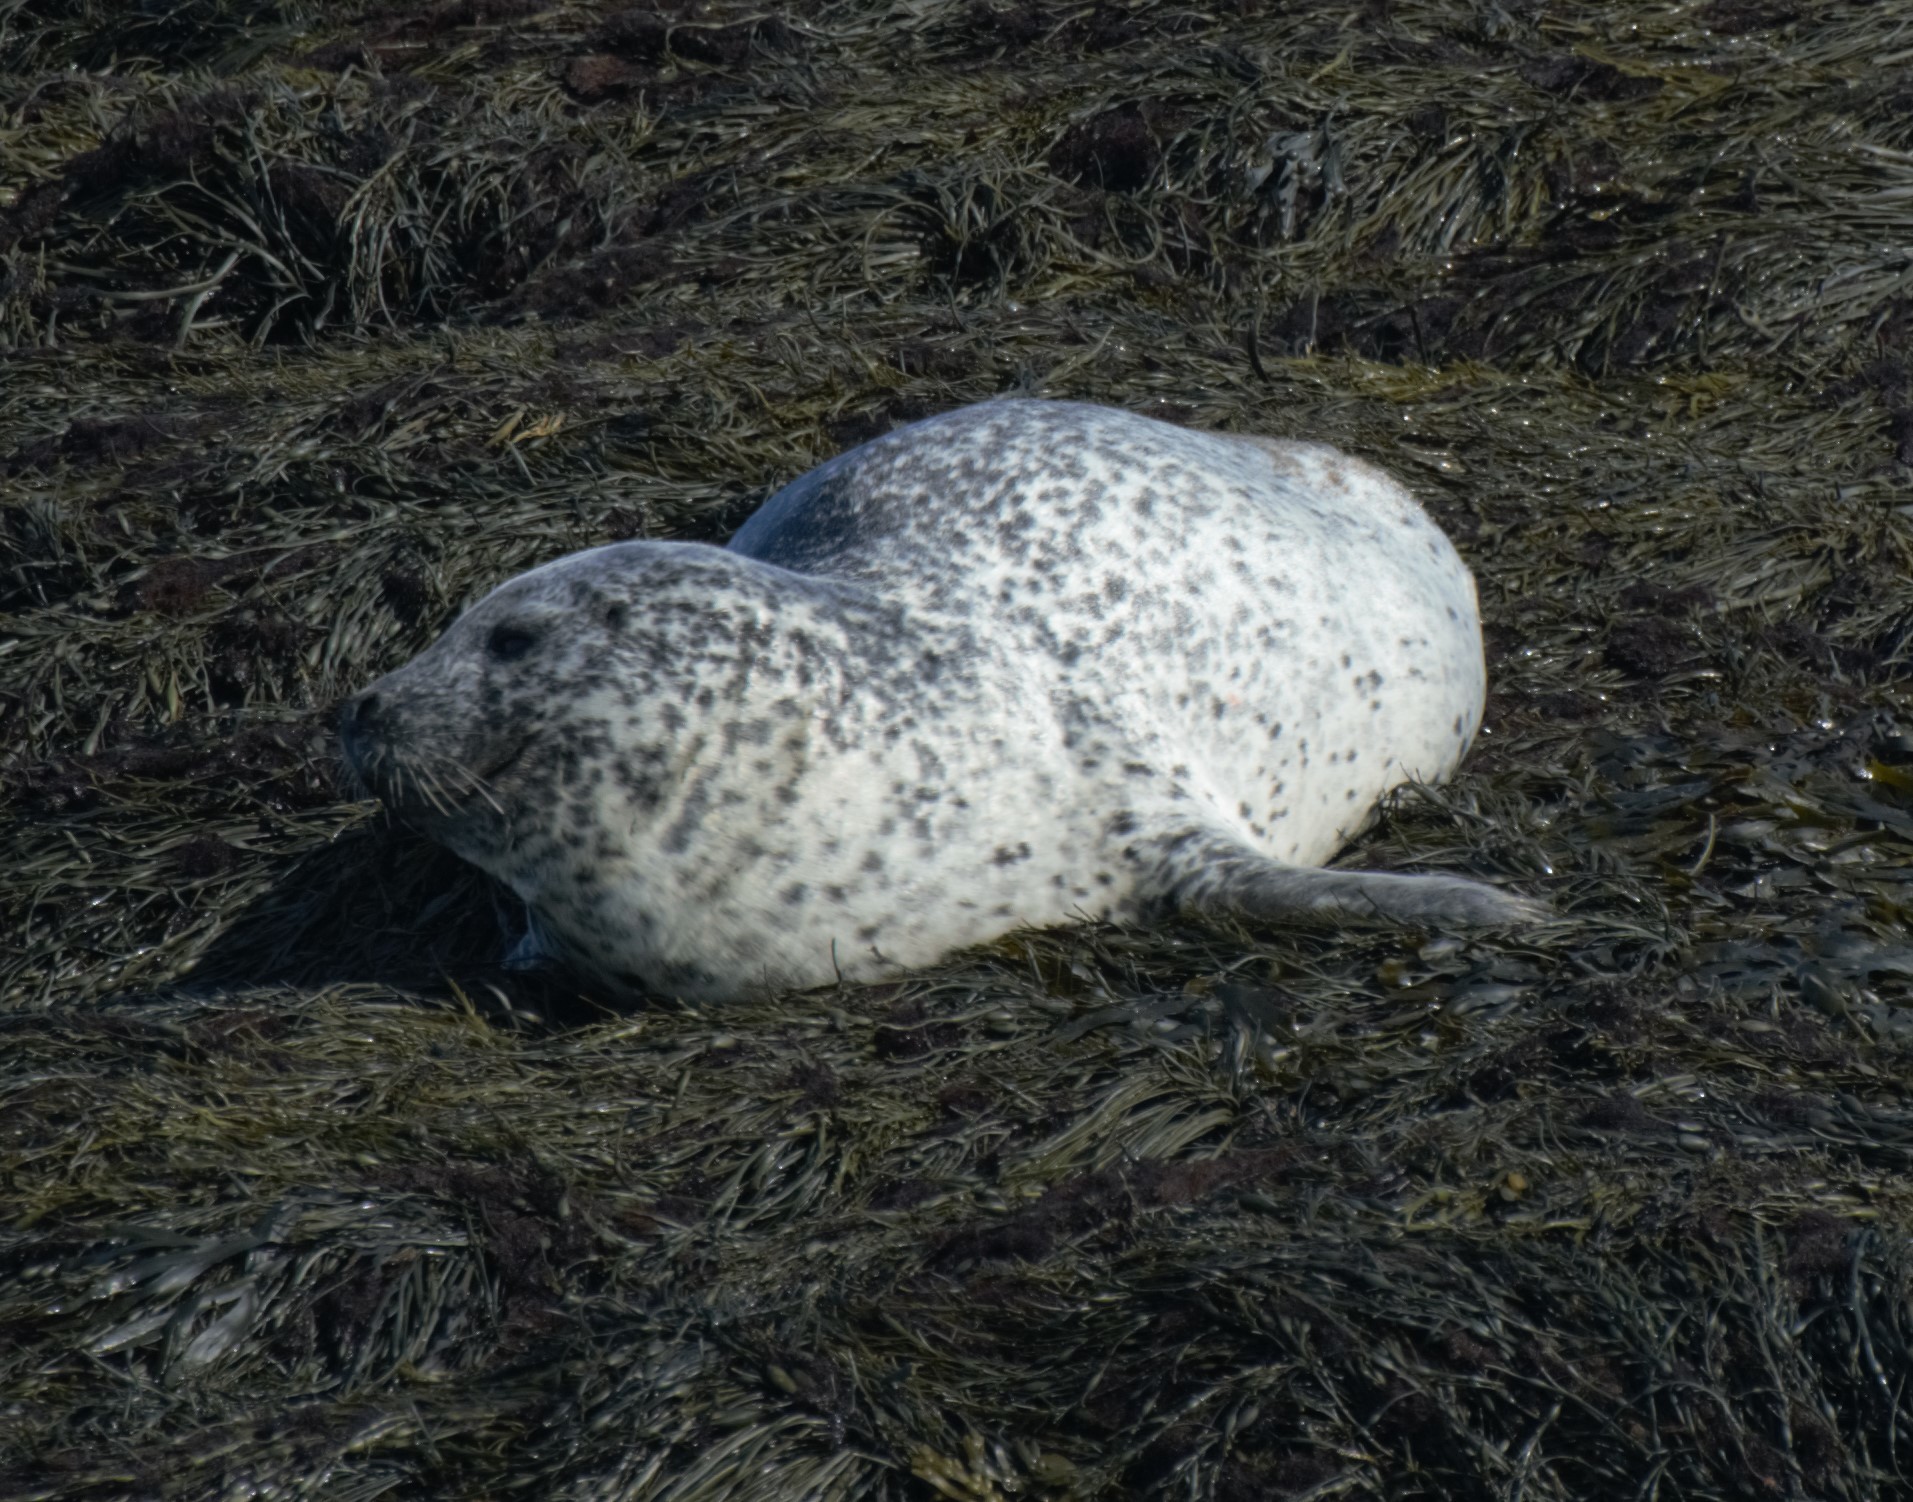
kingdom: Animalia
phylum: Chordata
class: Mammalia
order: Carnivora
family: Phocidae
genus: Phoca
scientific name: Phoca vitulina
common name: Harbor seal
